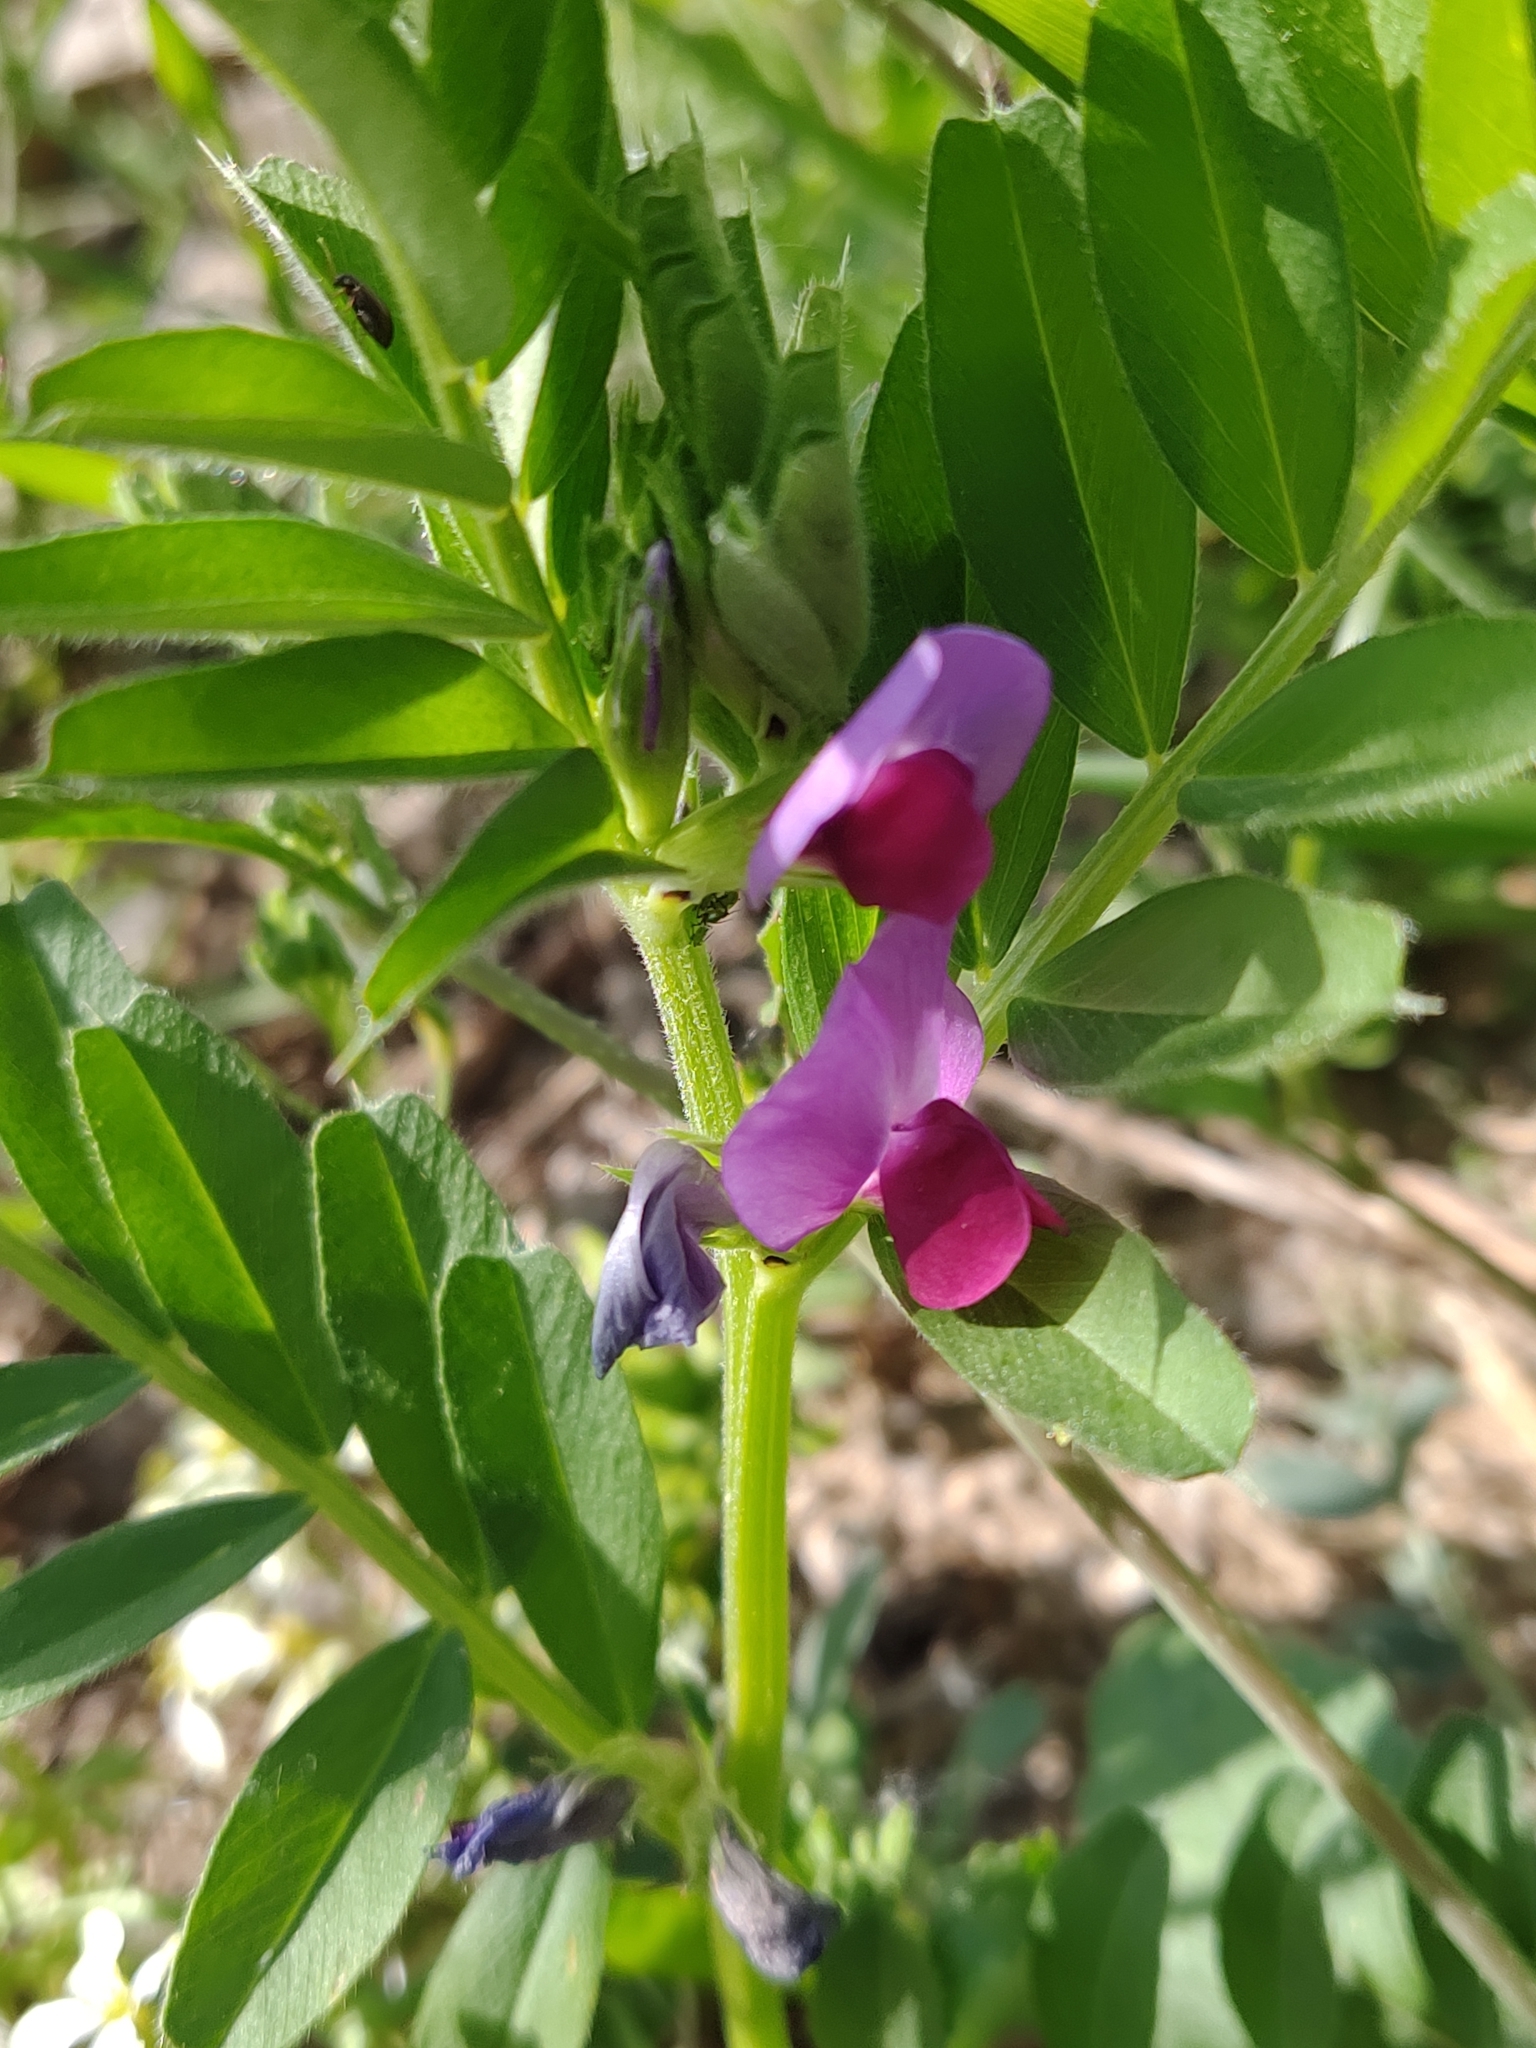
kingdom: Plantae
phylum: Tracheophyta
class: Magnoliopsida
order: Fabales
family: Fabaceae
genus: Vicia
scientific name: Vicia sativa
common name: Garden vetch
